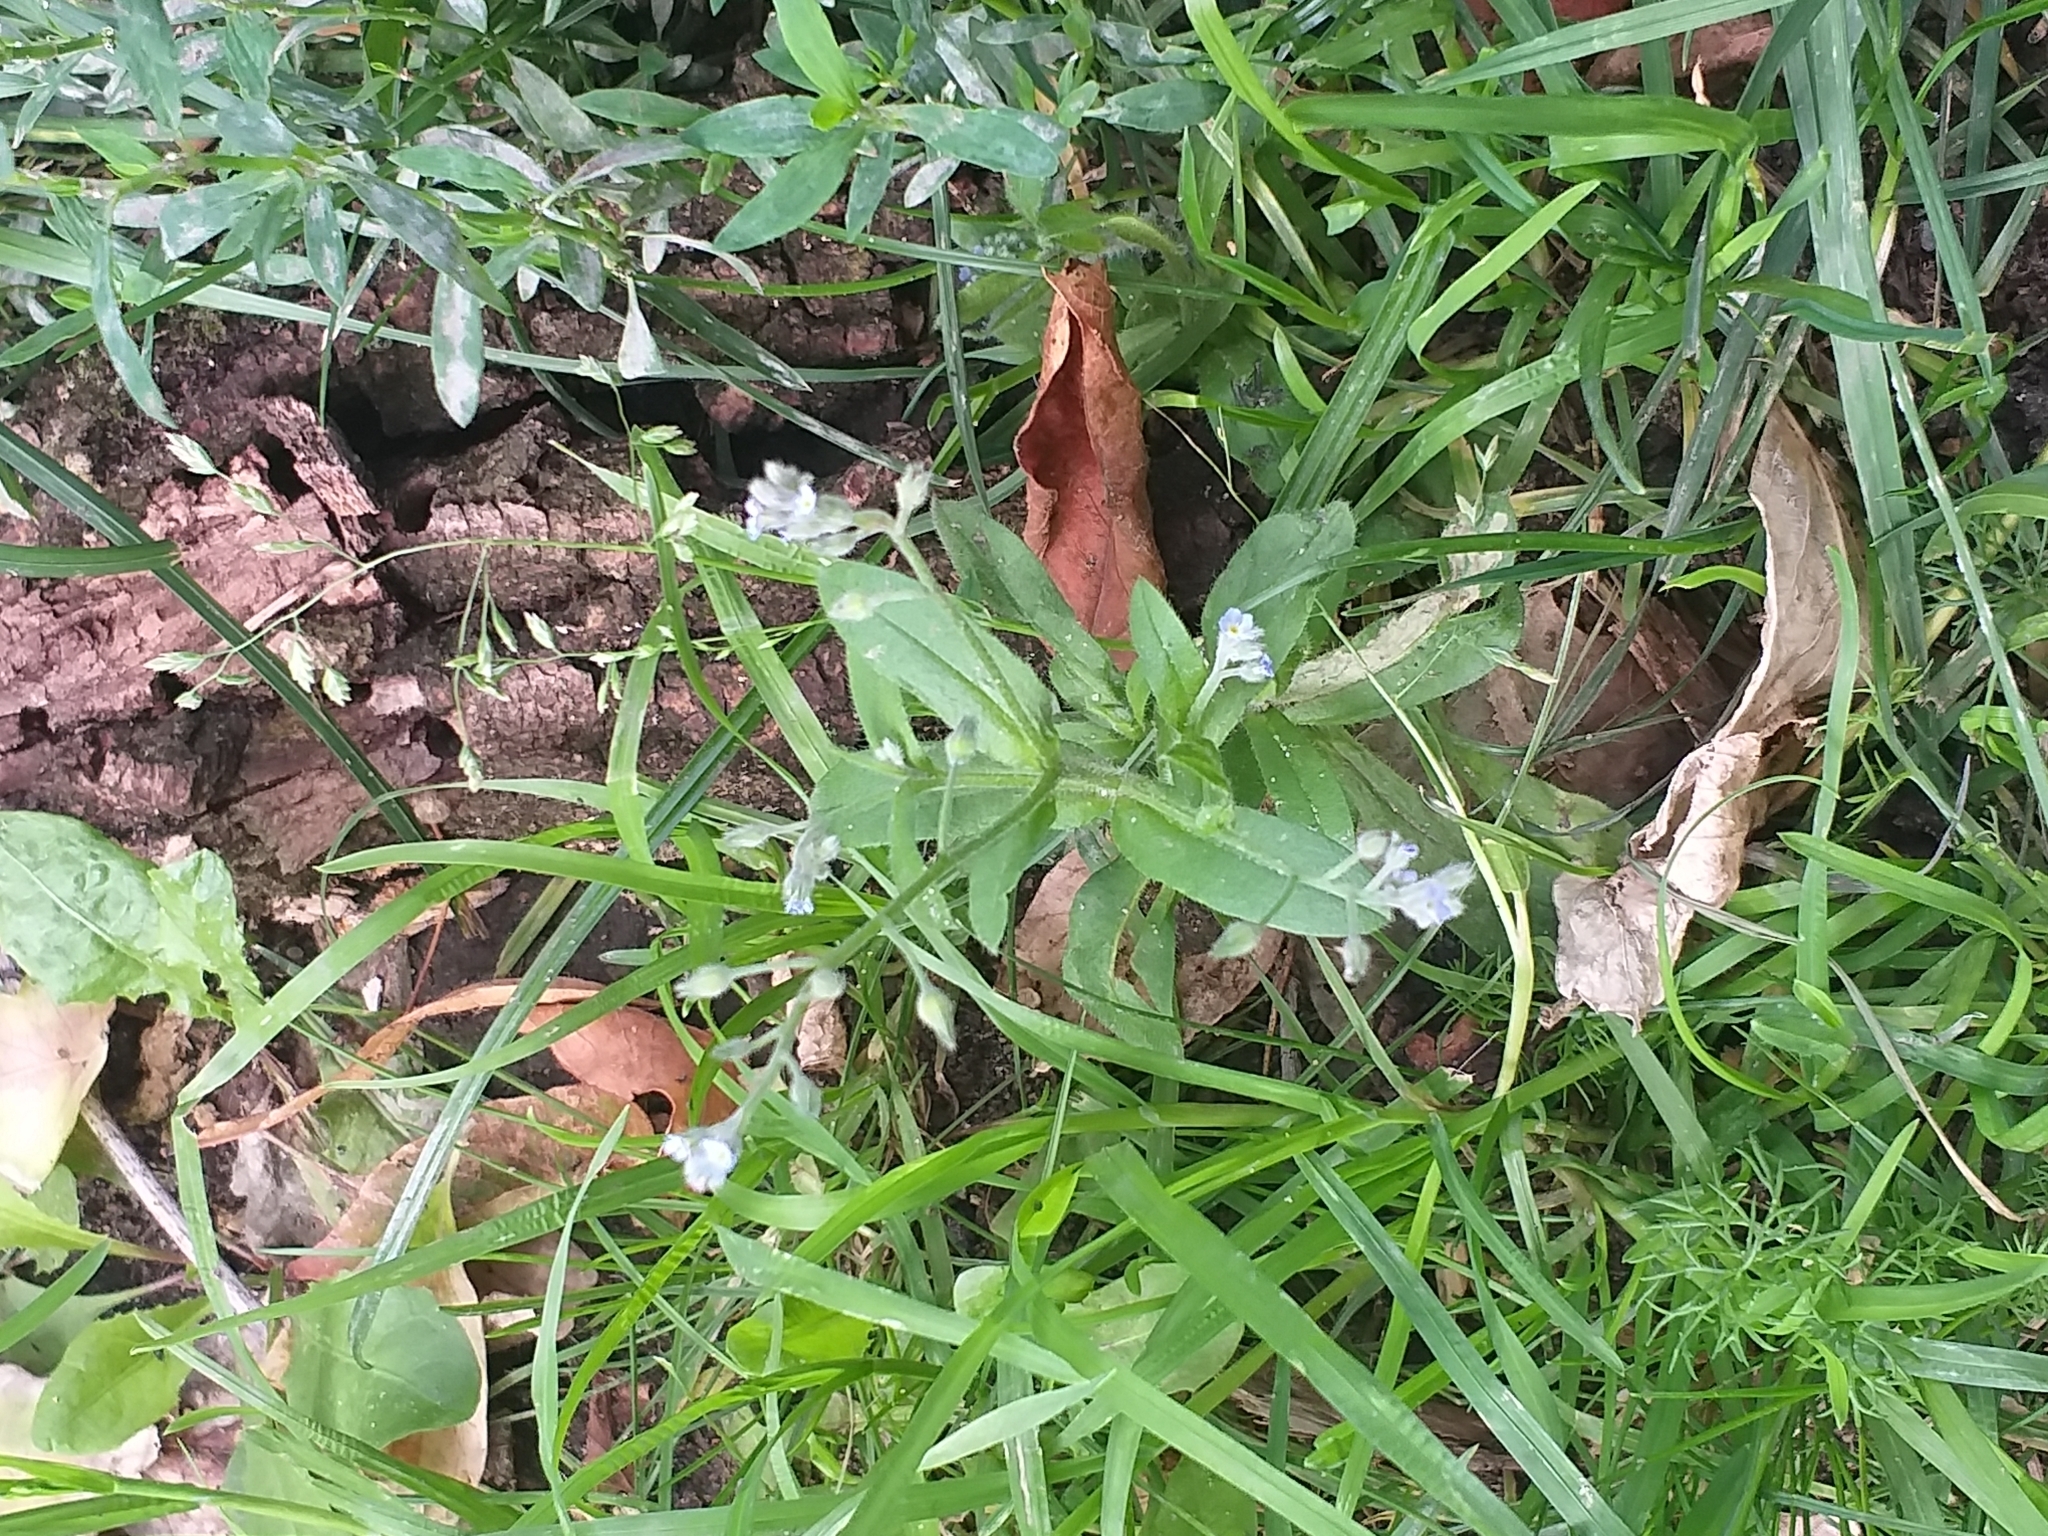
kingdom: Plantae
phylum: Tracheophyta
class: Magnoliopsida
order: Boraginales
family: Boraginaceae
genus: Myosotis
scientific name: Myosotis arvensis
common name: Field forget-me-not
